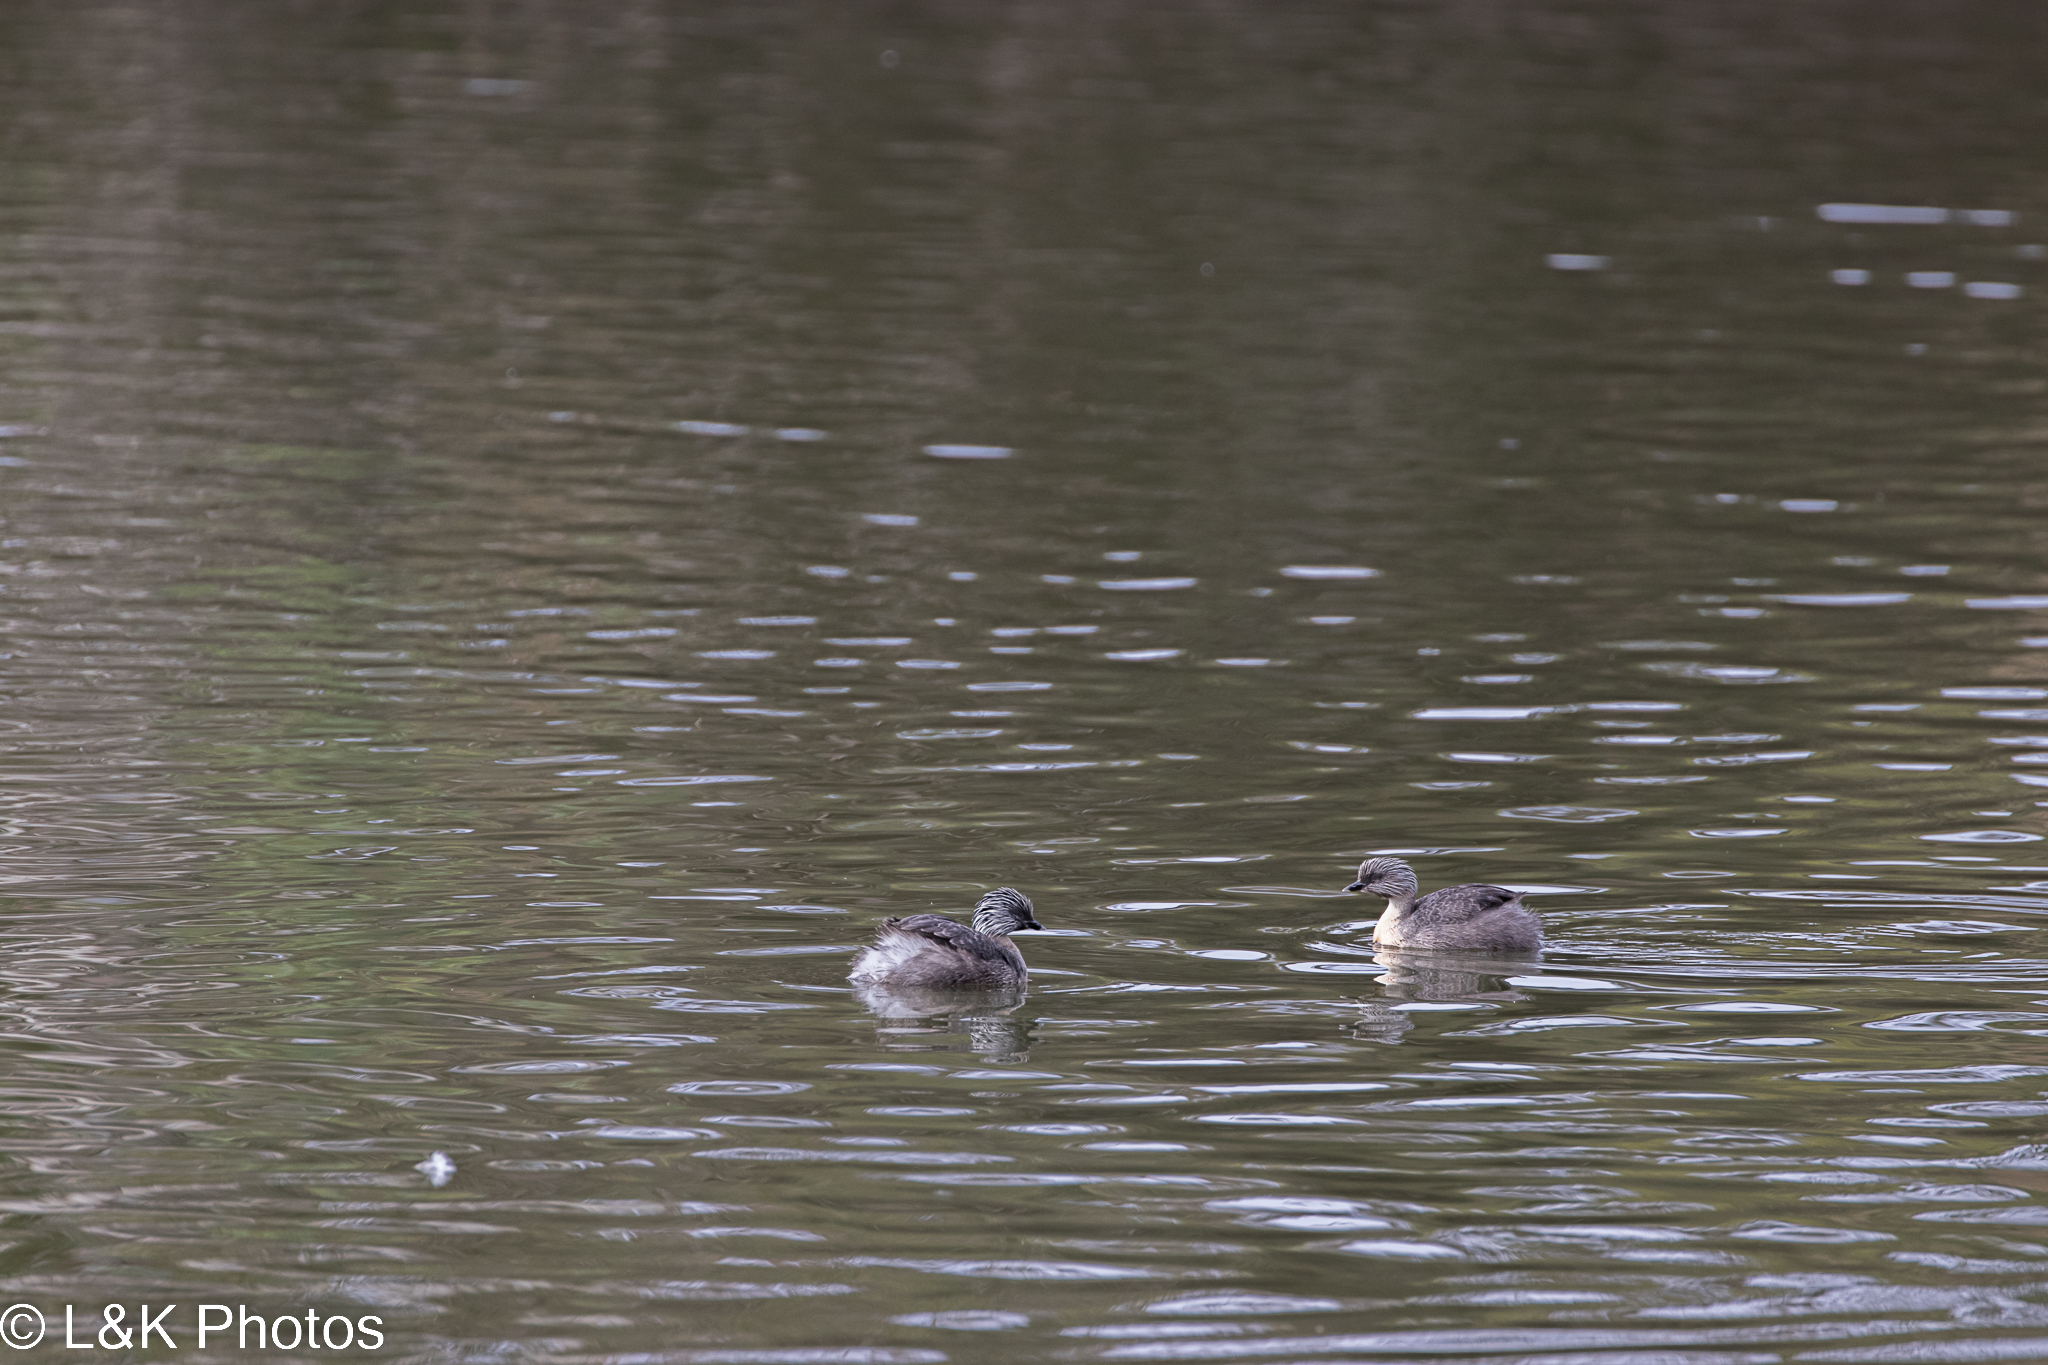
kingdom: Animalia
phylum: Chordata
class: Aves
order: Podicipediformes
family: Podicipedidae
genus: Poliocephalus
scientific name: Poliocephalus poliocephalus
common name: Hoary-headed grebe
